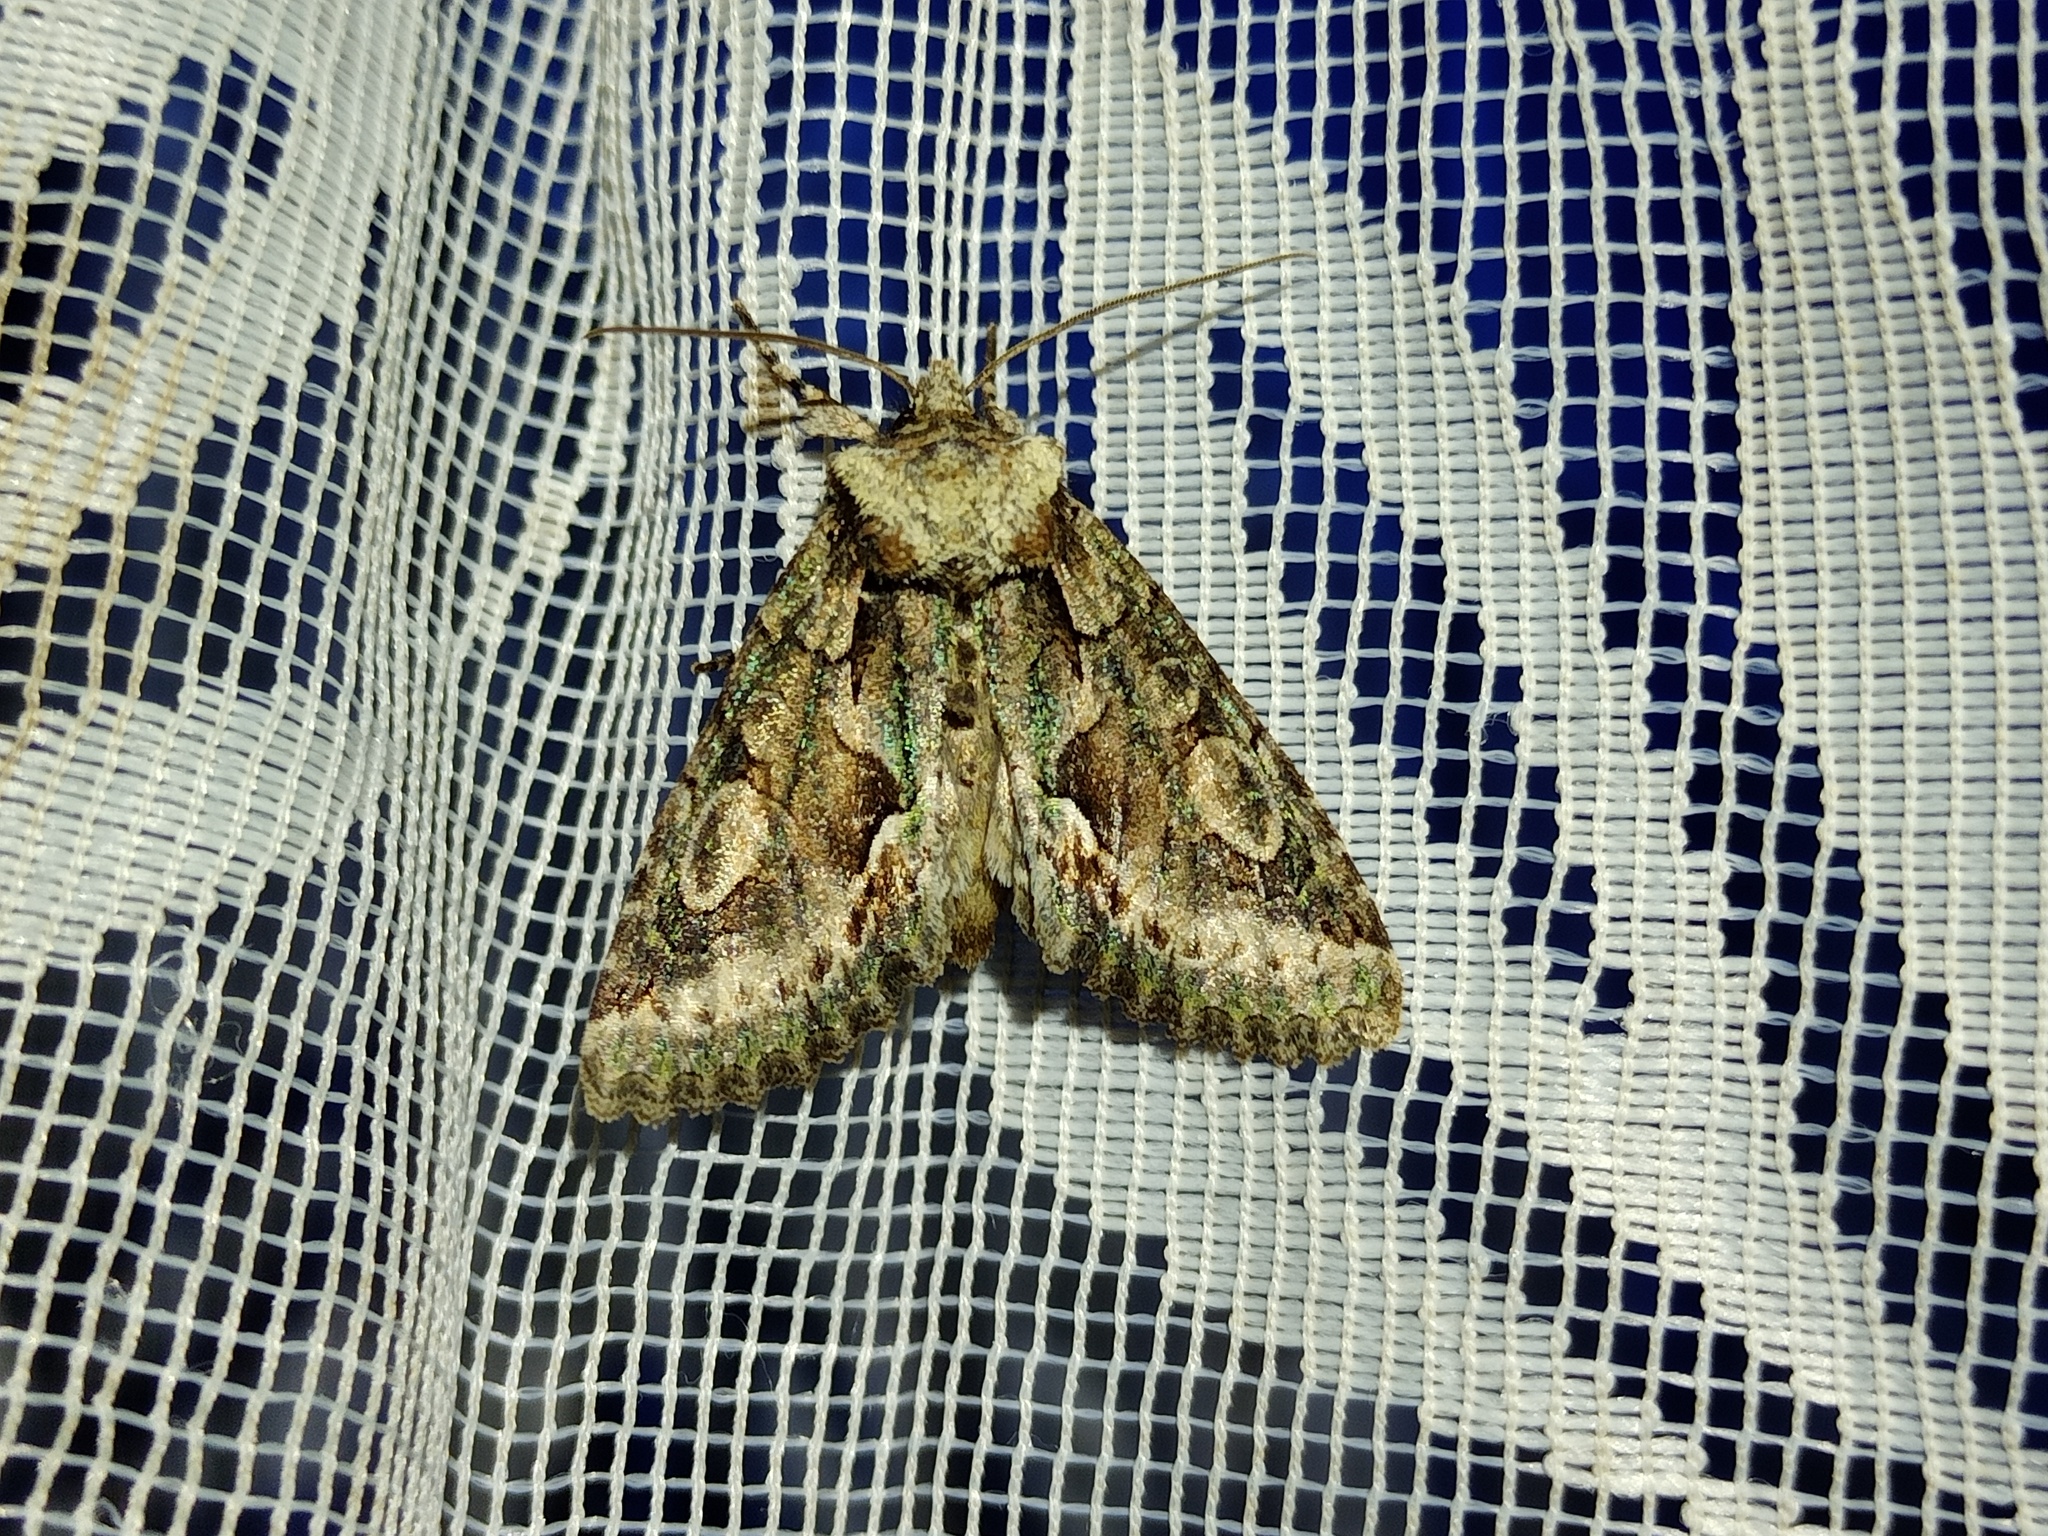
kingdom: Animalia
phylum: Arthropoda
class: Insecta
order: Lepidoptera
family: Noctuidae
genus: Allophyes
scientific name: Allophyes oxyacanthae
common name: Green-brindled crescent
